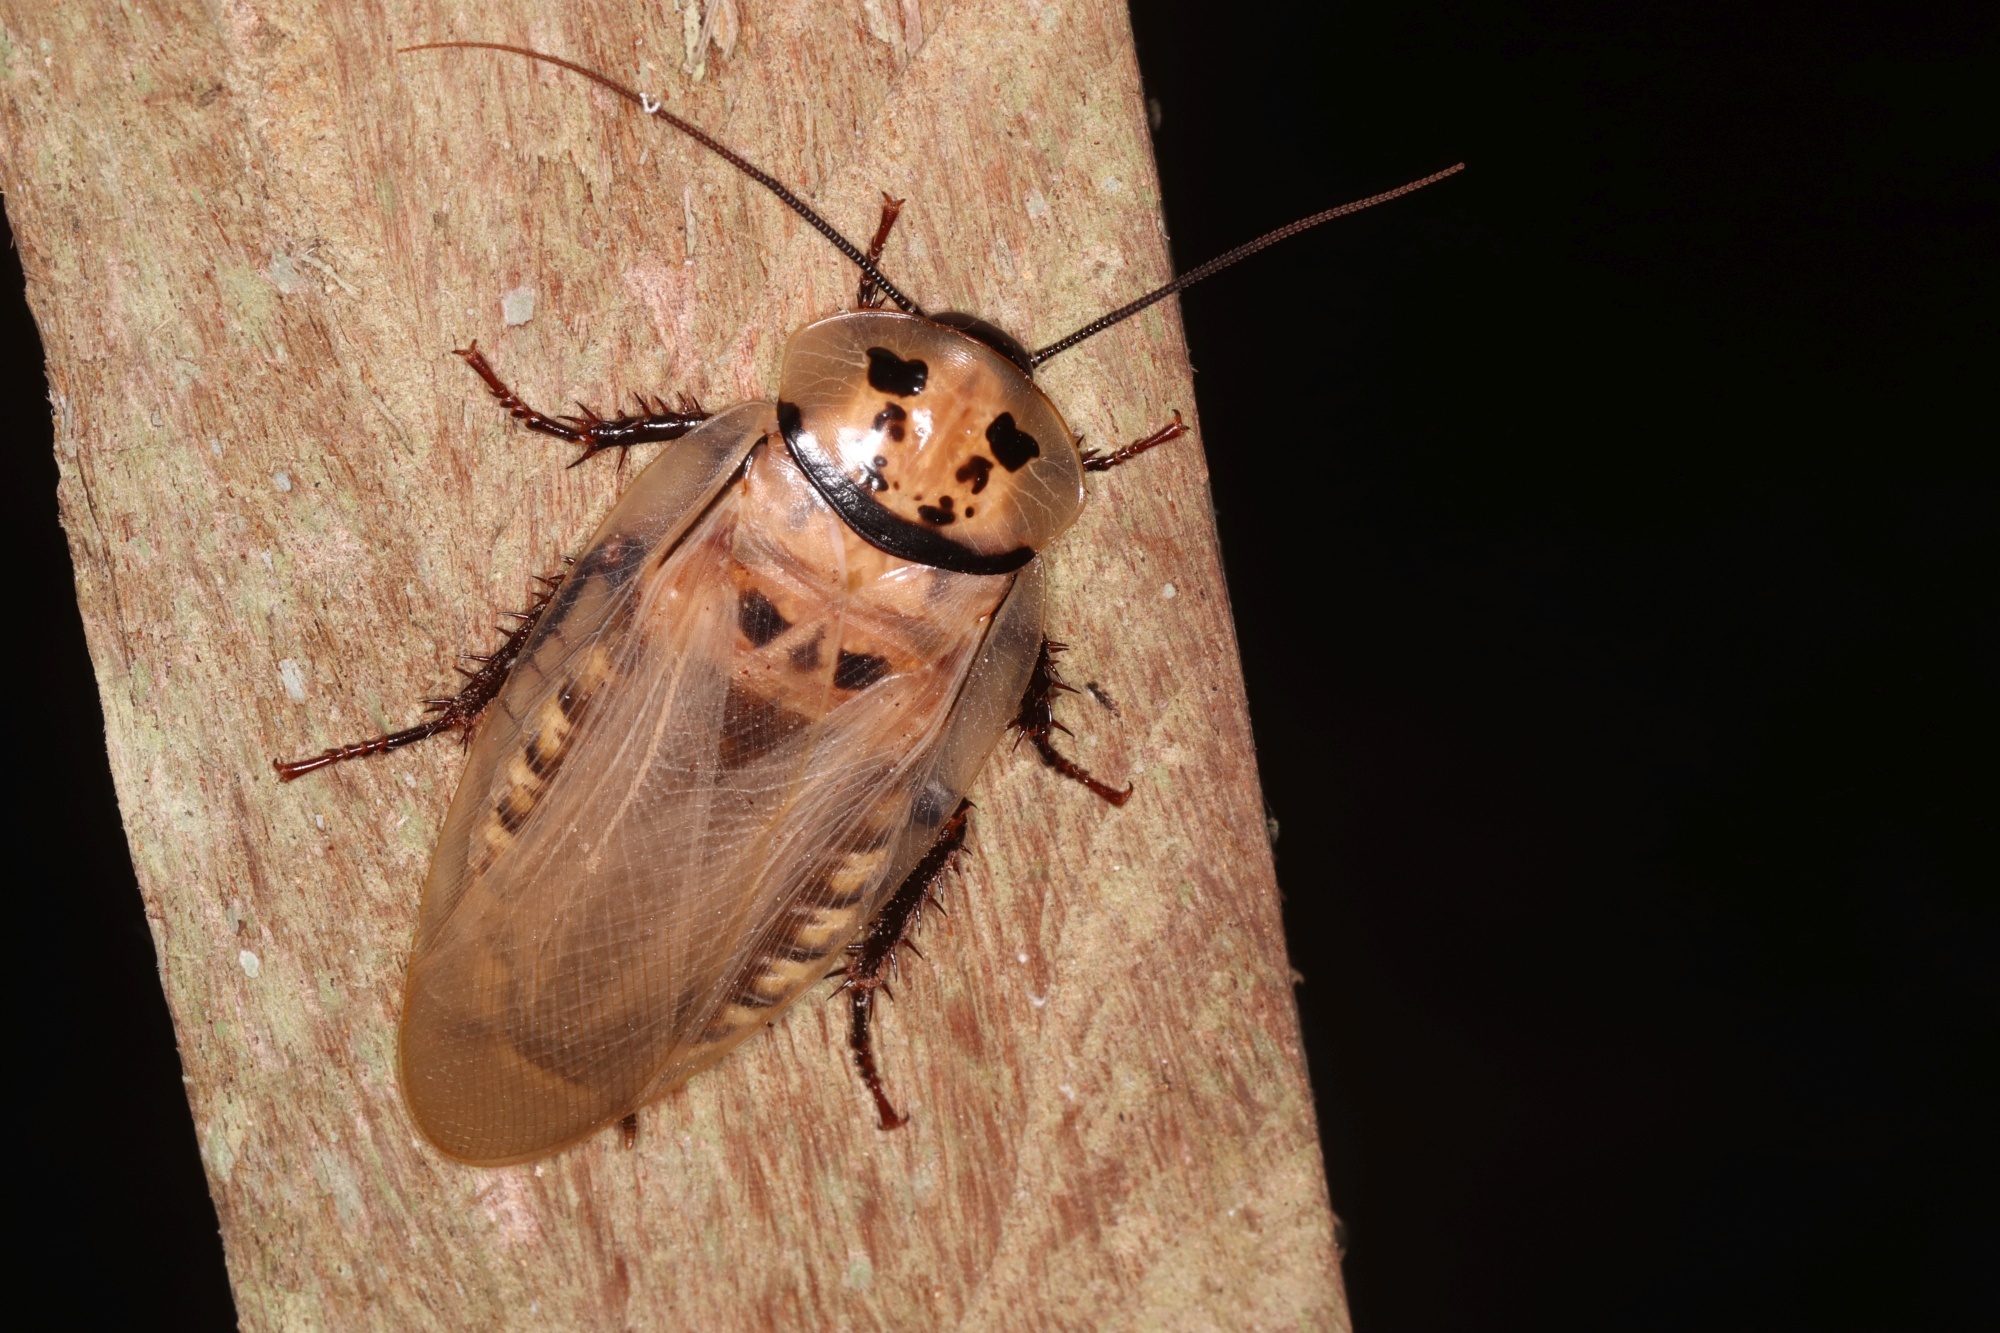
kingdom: Animalia
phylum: Arthropoda
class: Insecta
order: Blattodea
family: Blaberidae
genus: Eublaberus
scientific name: Eublaberus distanti
